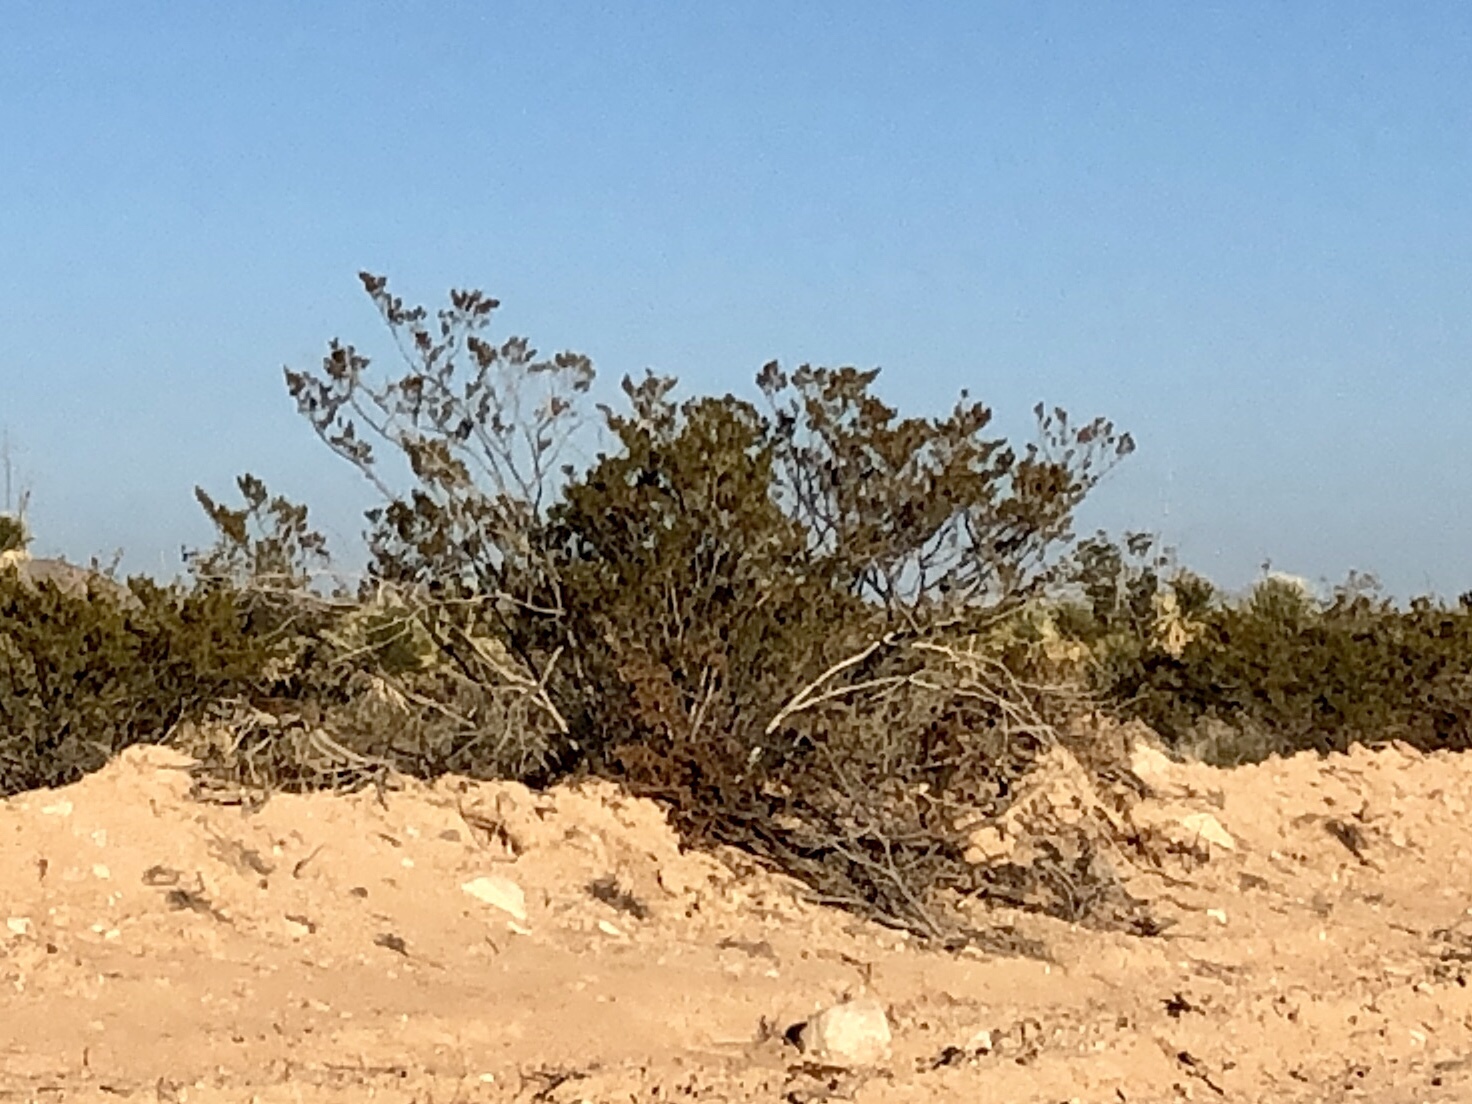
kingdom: Plantae
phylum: Tracheophyta
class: Magnoliopsida
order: Zygophyllales
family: Zygophyllaceae
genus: Larrea
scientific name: Larrea tridentata
